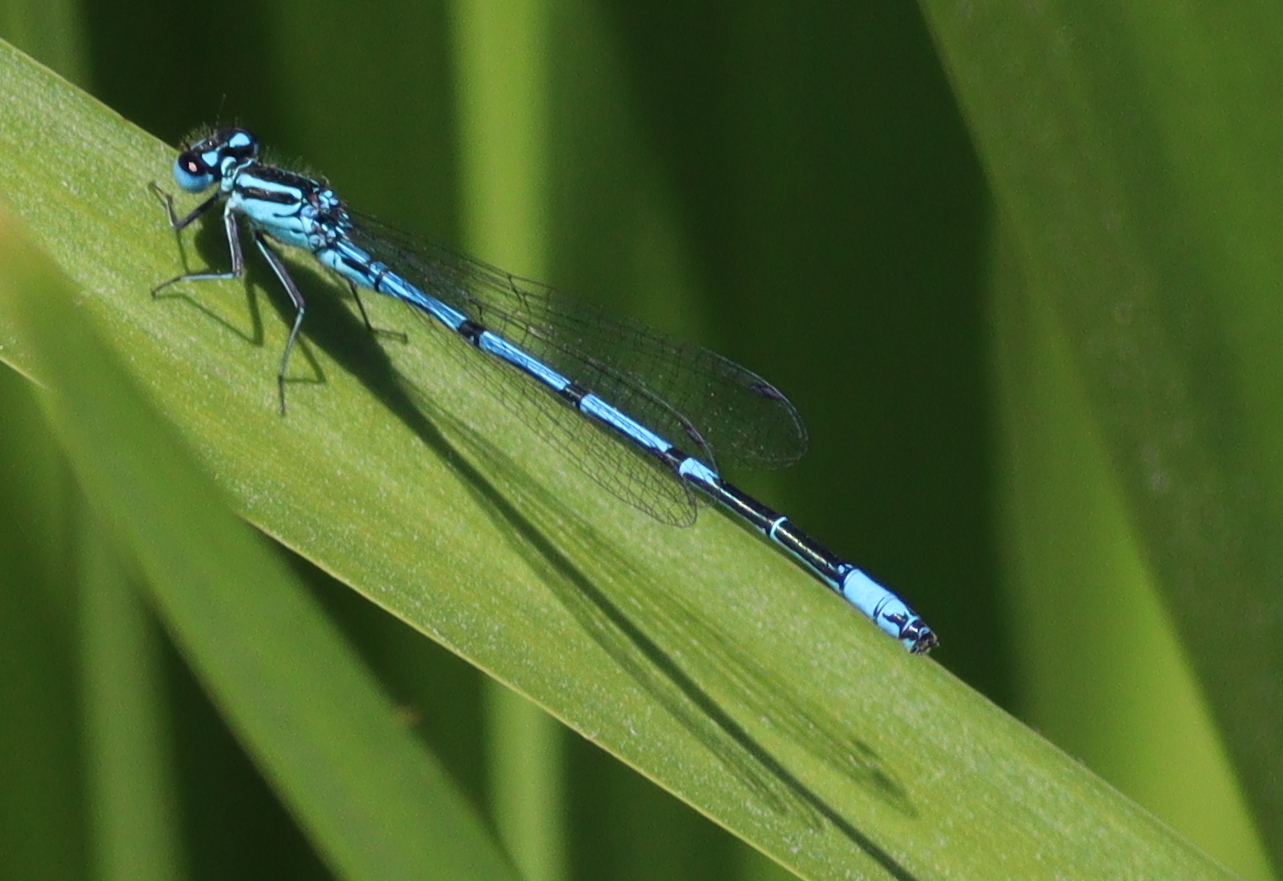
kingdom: Animalia
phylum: Arthropoda
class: Insecta
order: Odonata
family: Coenagrionidae
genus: Coenagrion
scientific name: Coenagrion puella
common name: Azure damselfly
